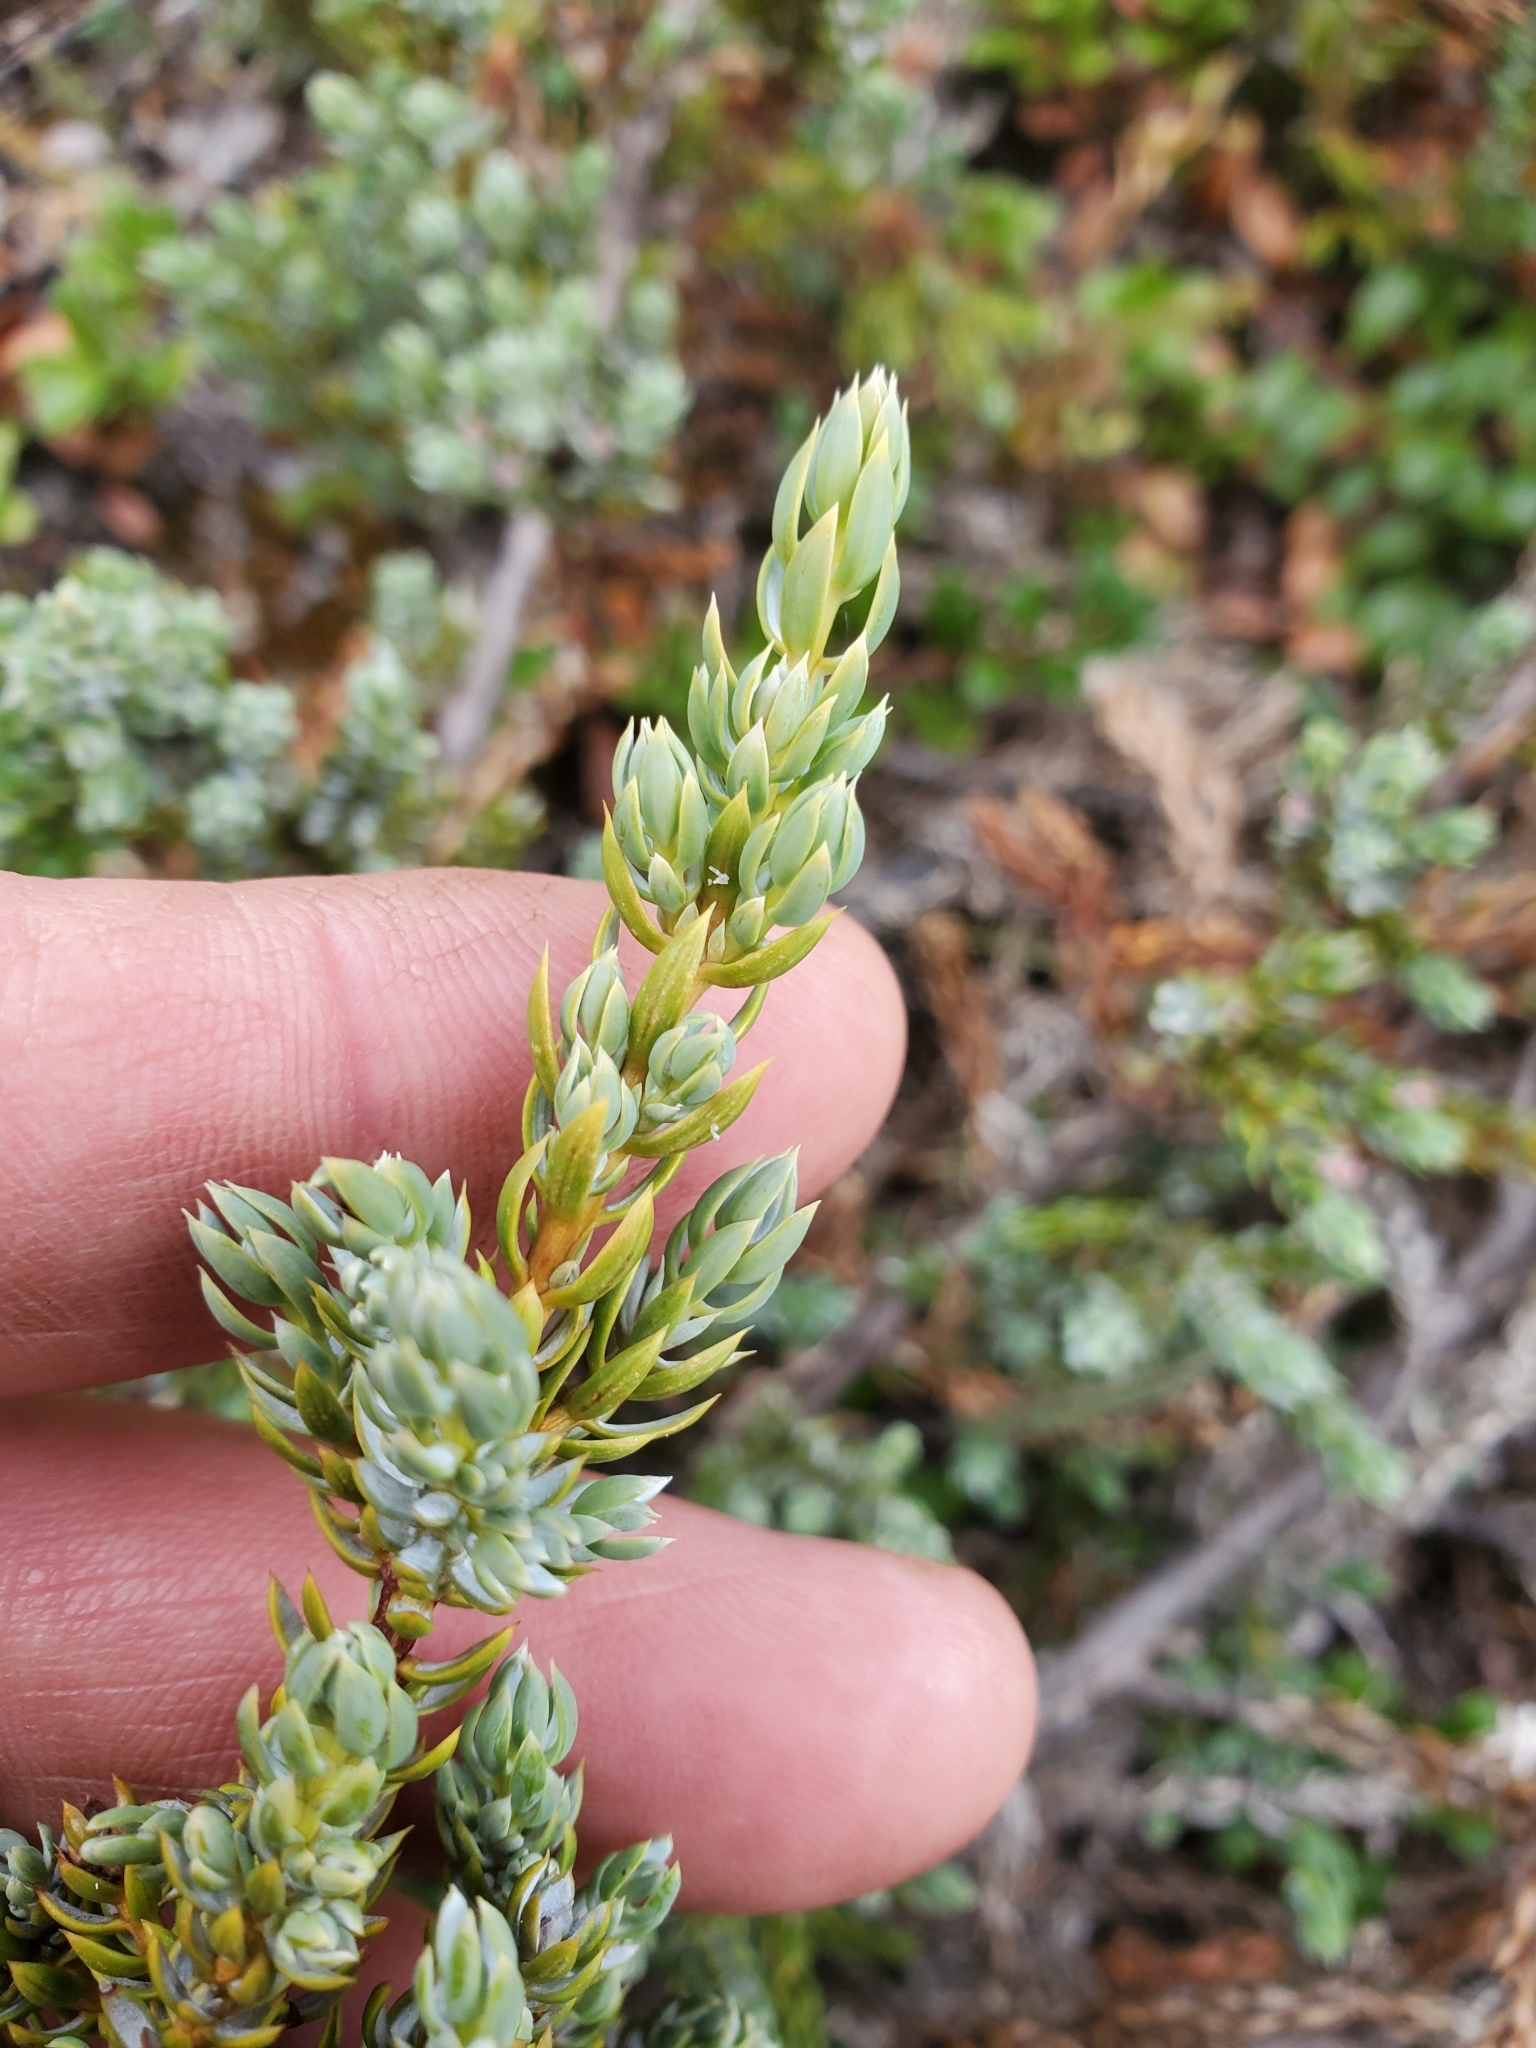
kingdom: Plantae
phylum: Tracheophyta
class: Pinopsida
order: Pinales
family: Cupressaceae
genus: Juniperus
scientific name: Juniperus communis
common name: Common juniper
